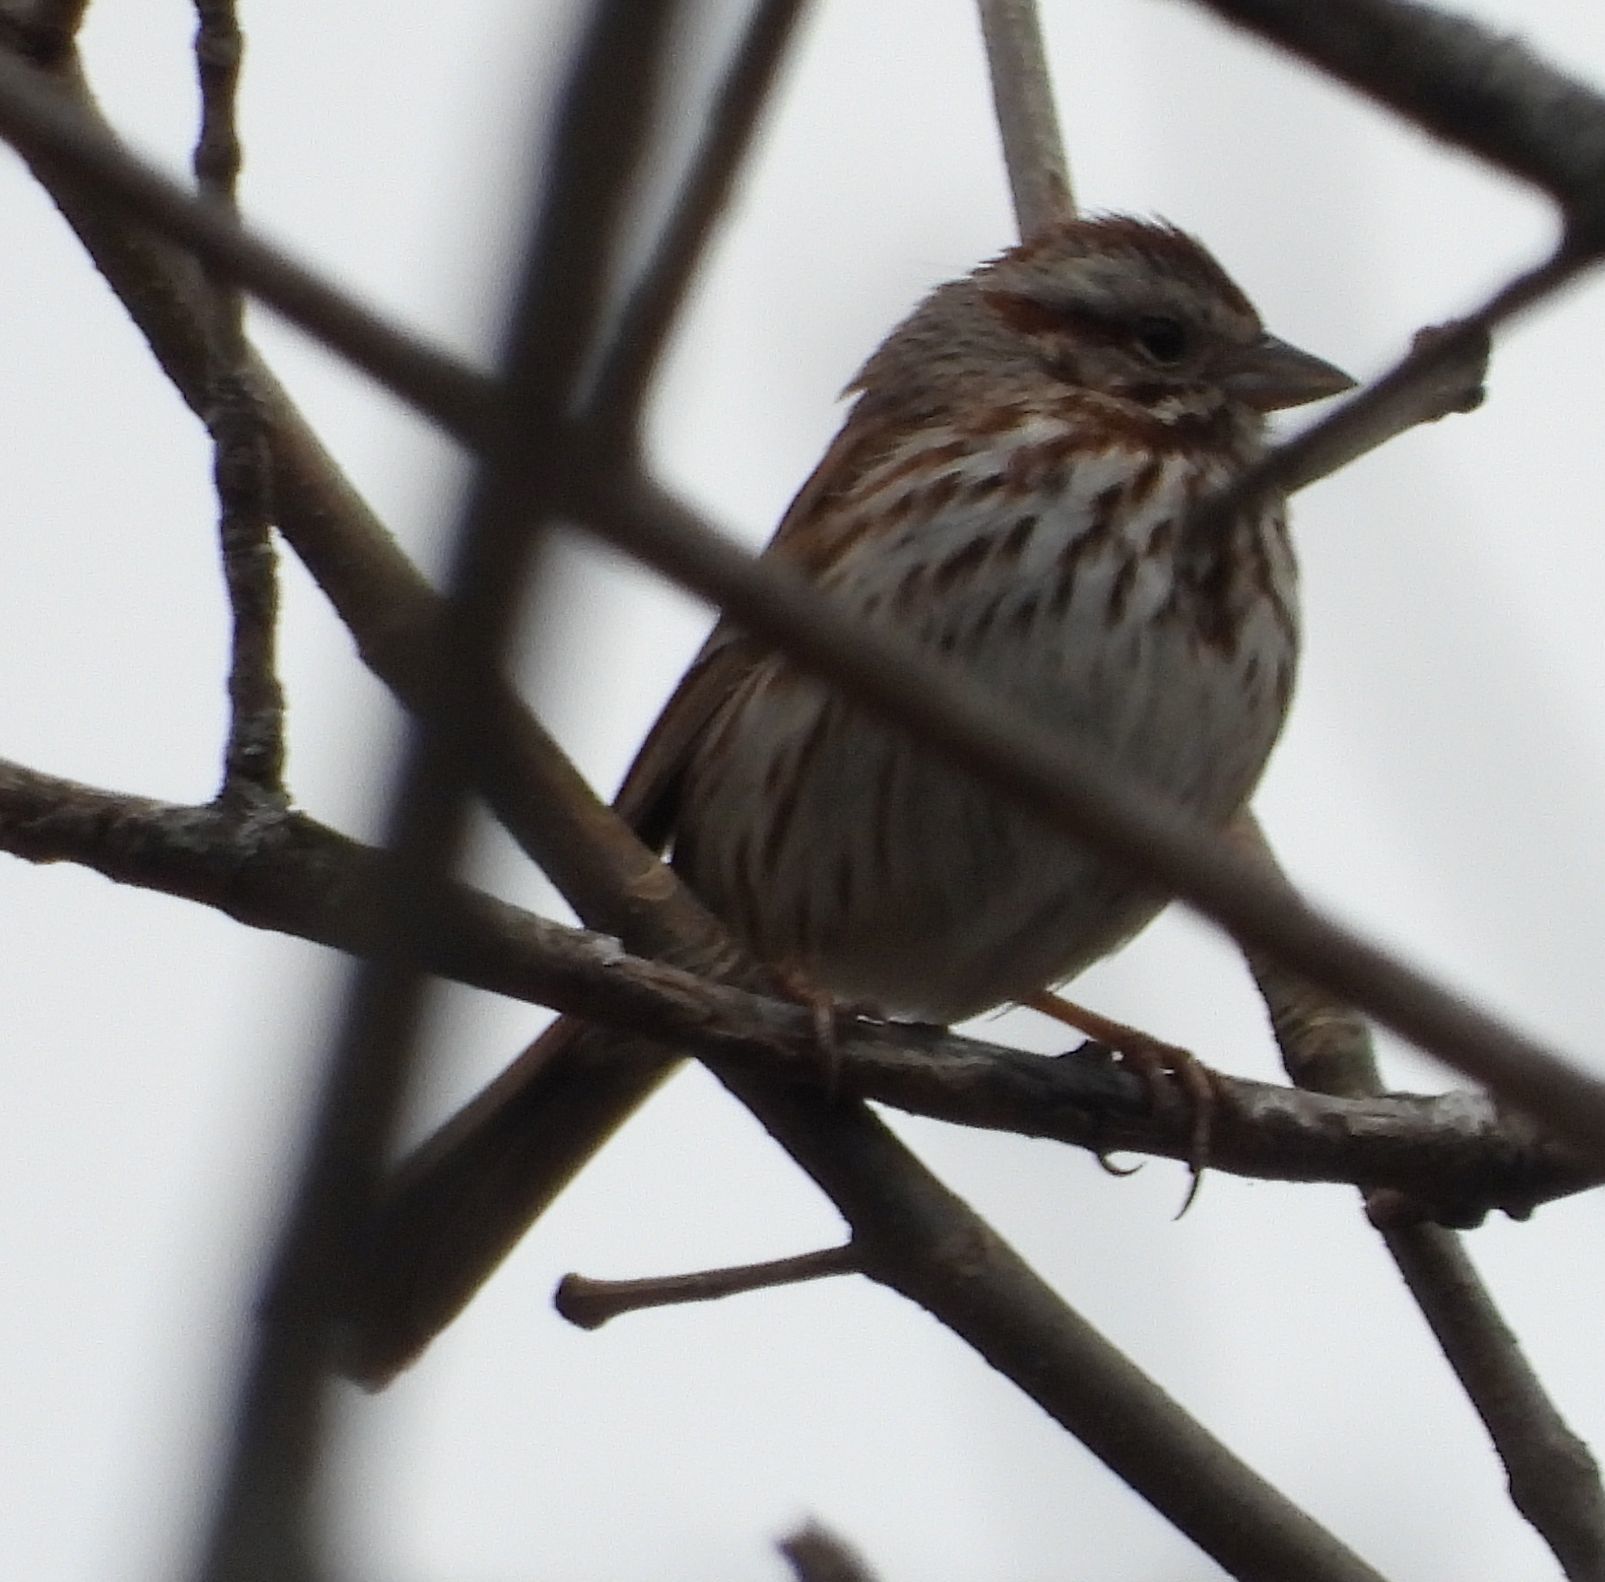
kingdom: Animalia
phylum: Chordata
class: Aves
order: Passeriformes
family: Passerellidae
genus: Melospiza
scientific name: Melospiza melodia
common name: Song sparrow
